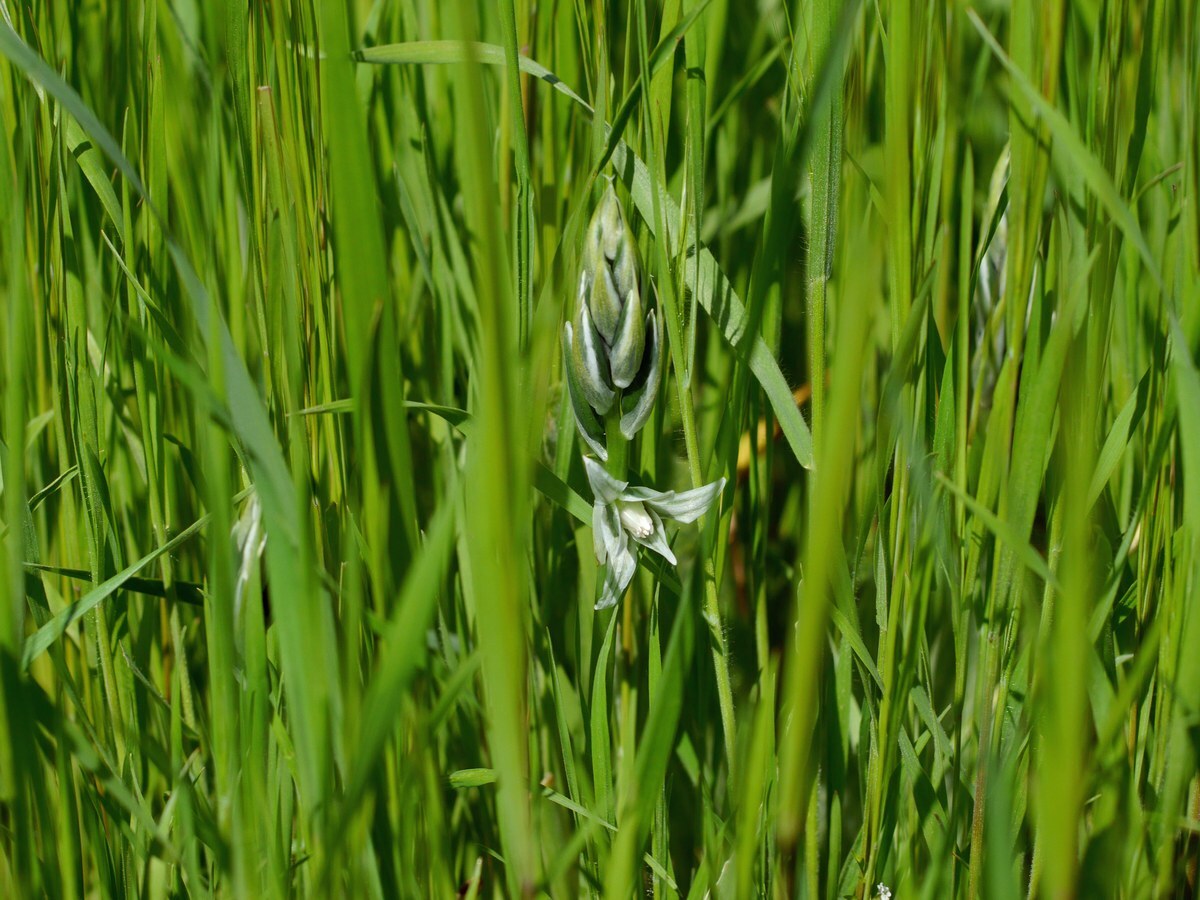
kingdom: Plantae
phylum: Tracheophyta
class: Liliopsida
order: Asparagales
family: Asparagaceae
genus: Ornithogalum
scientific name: Ornithogalum boucheanum
